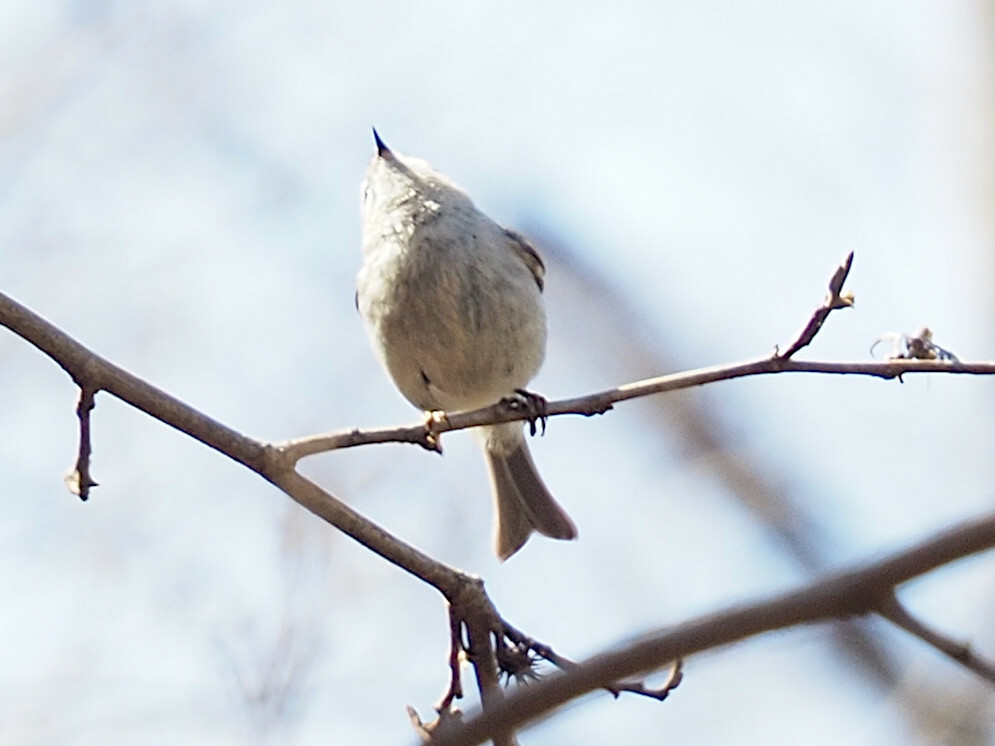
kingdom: Animalia
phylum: Chordata
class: Aves
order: Passeriformes
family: Regulidae
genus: Regulus
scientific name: Regulus satrapa
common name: Golden-crowned kinglet
